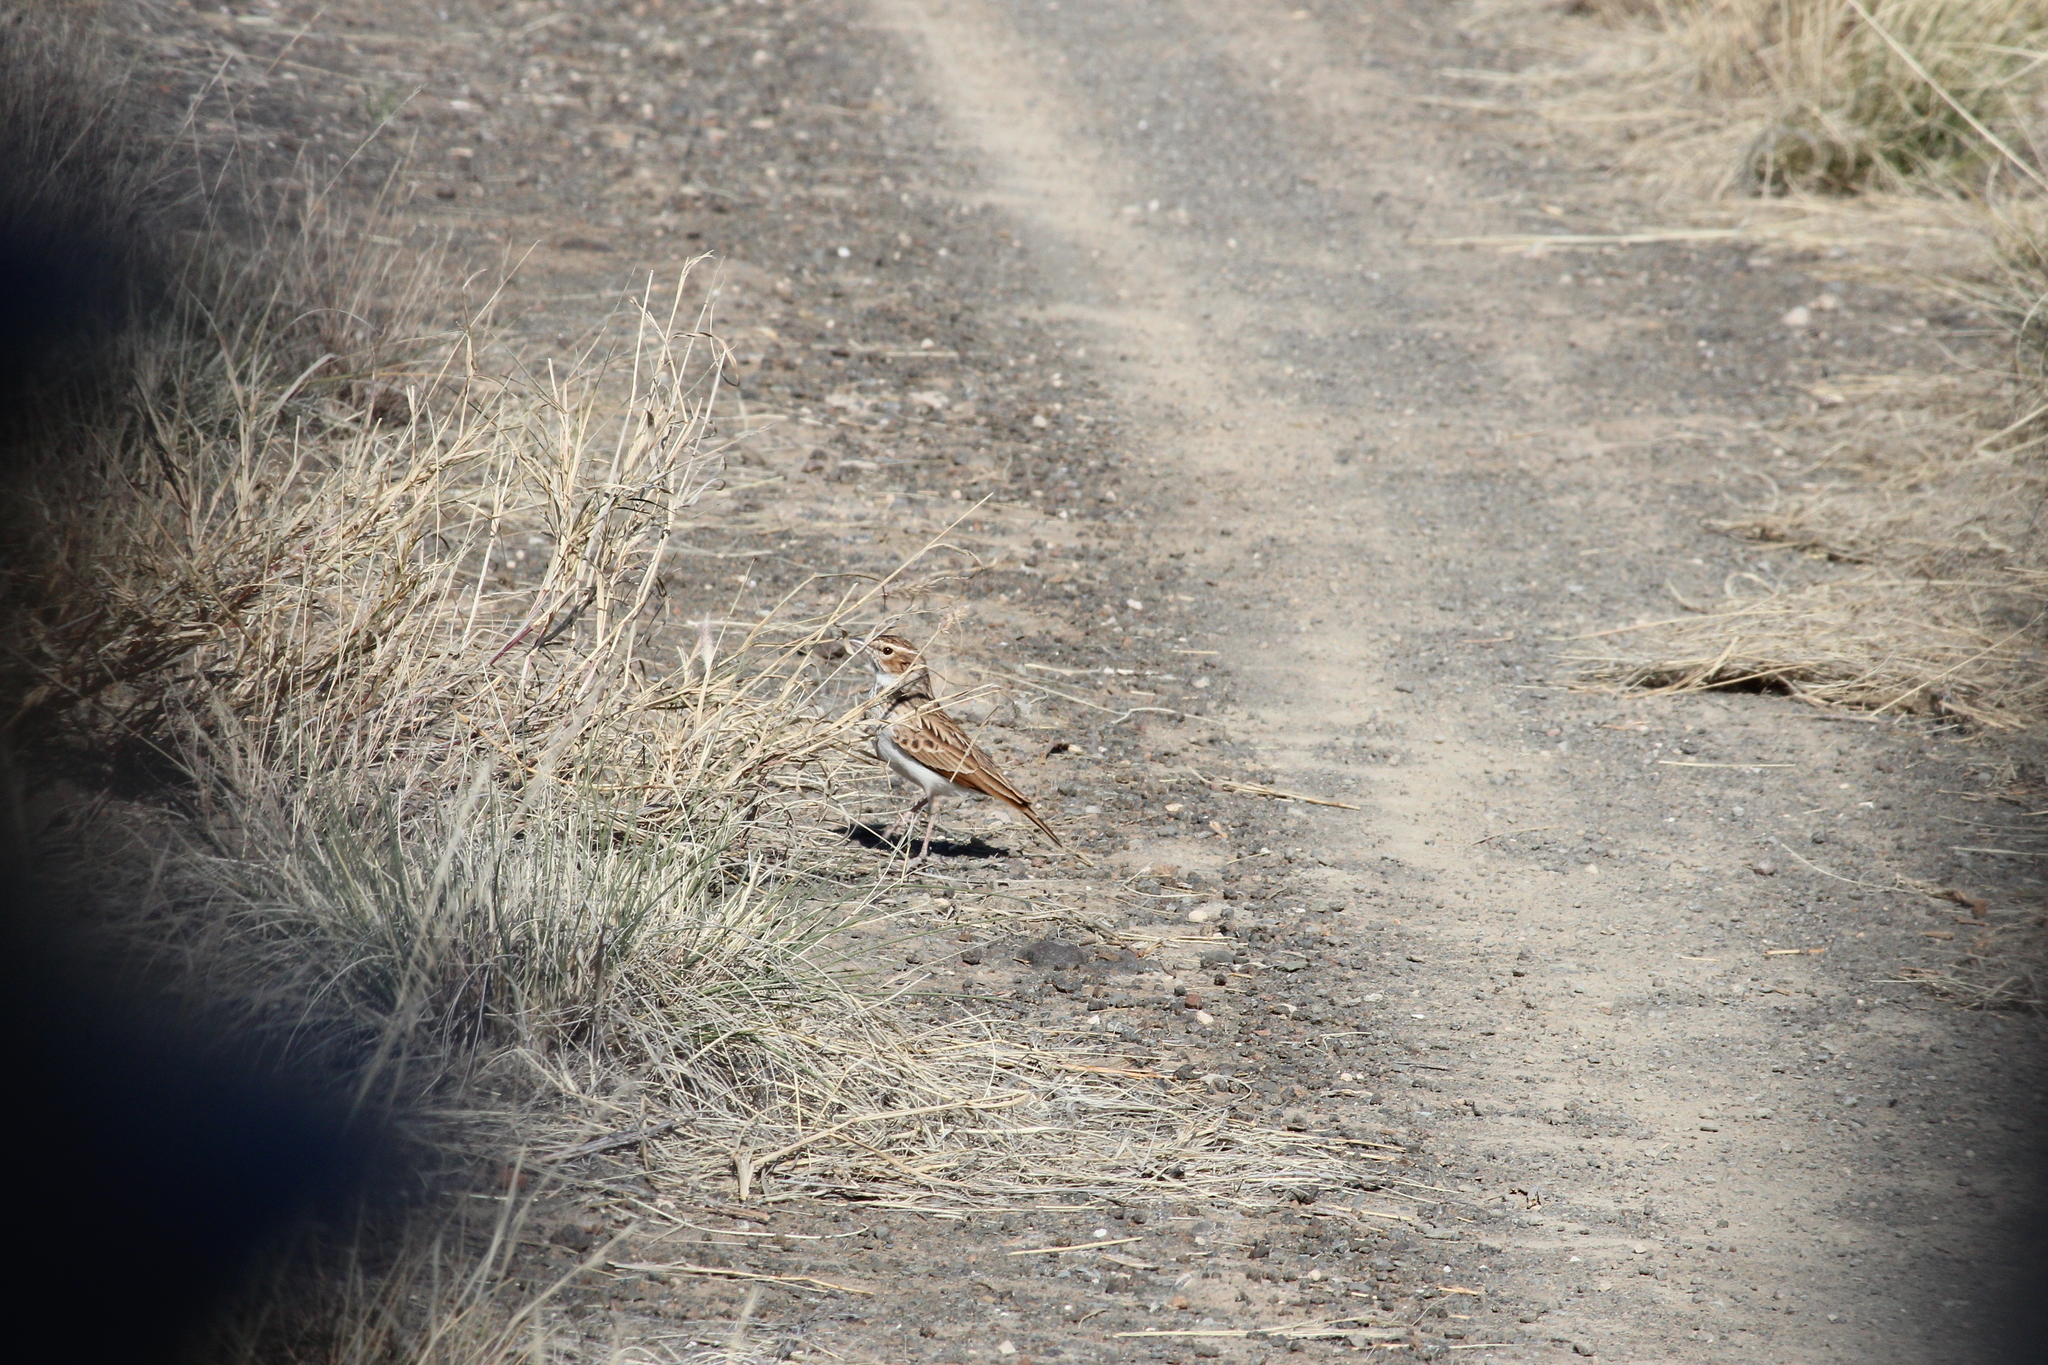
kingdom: Animalia
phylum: Chordata
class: Aves
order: Passeriformes
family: Alaudidae
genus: Calendulauda
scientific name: Calendulauda africanoides
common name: Fawn-colored lark
